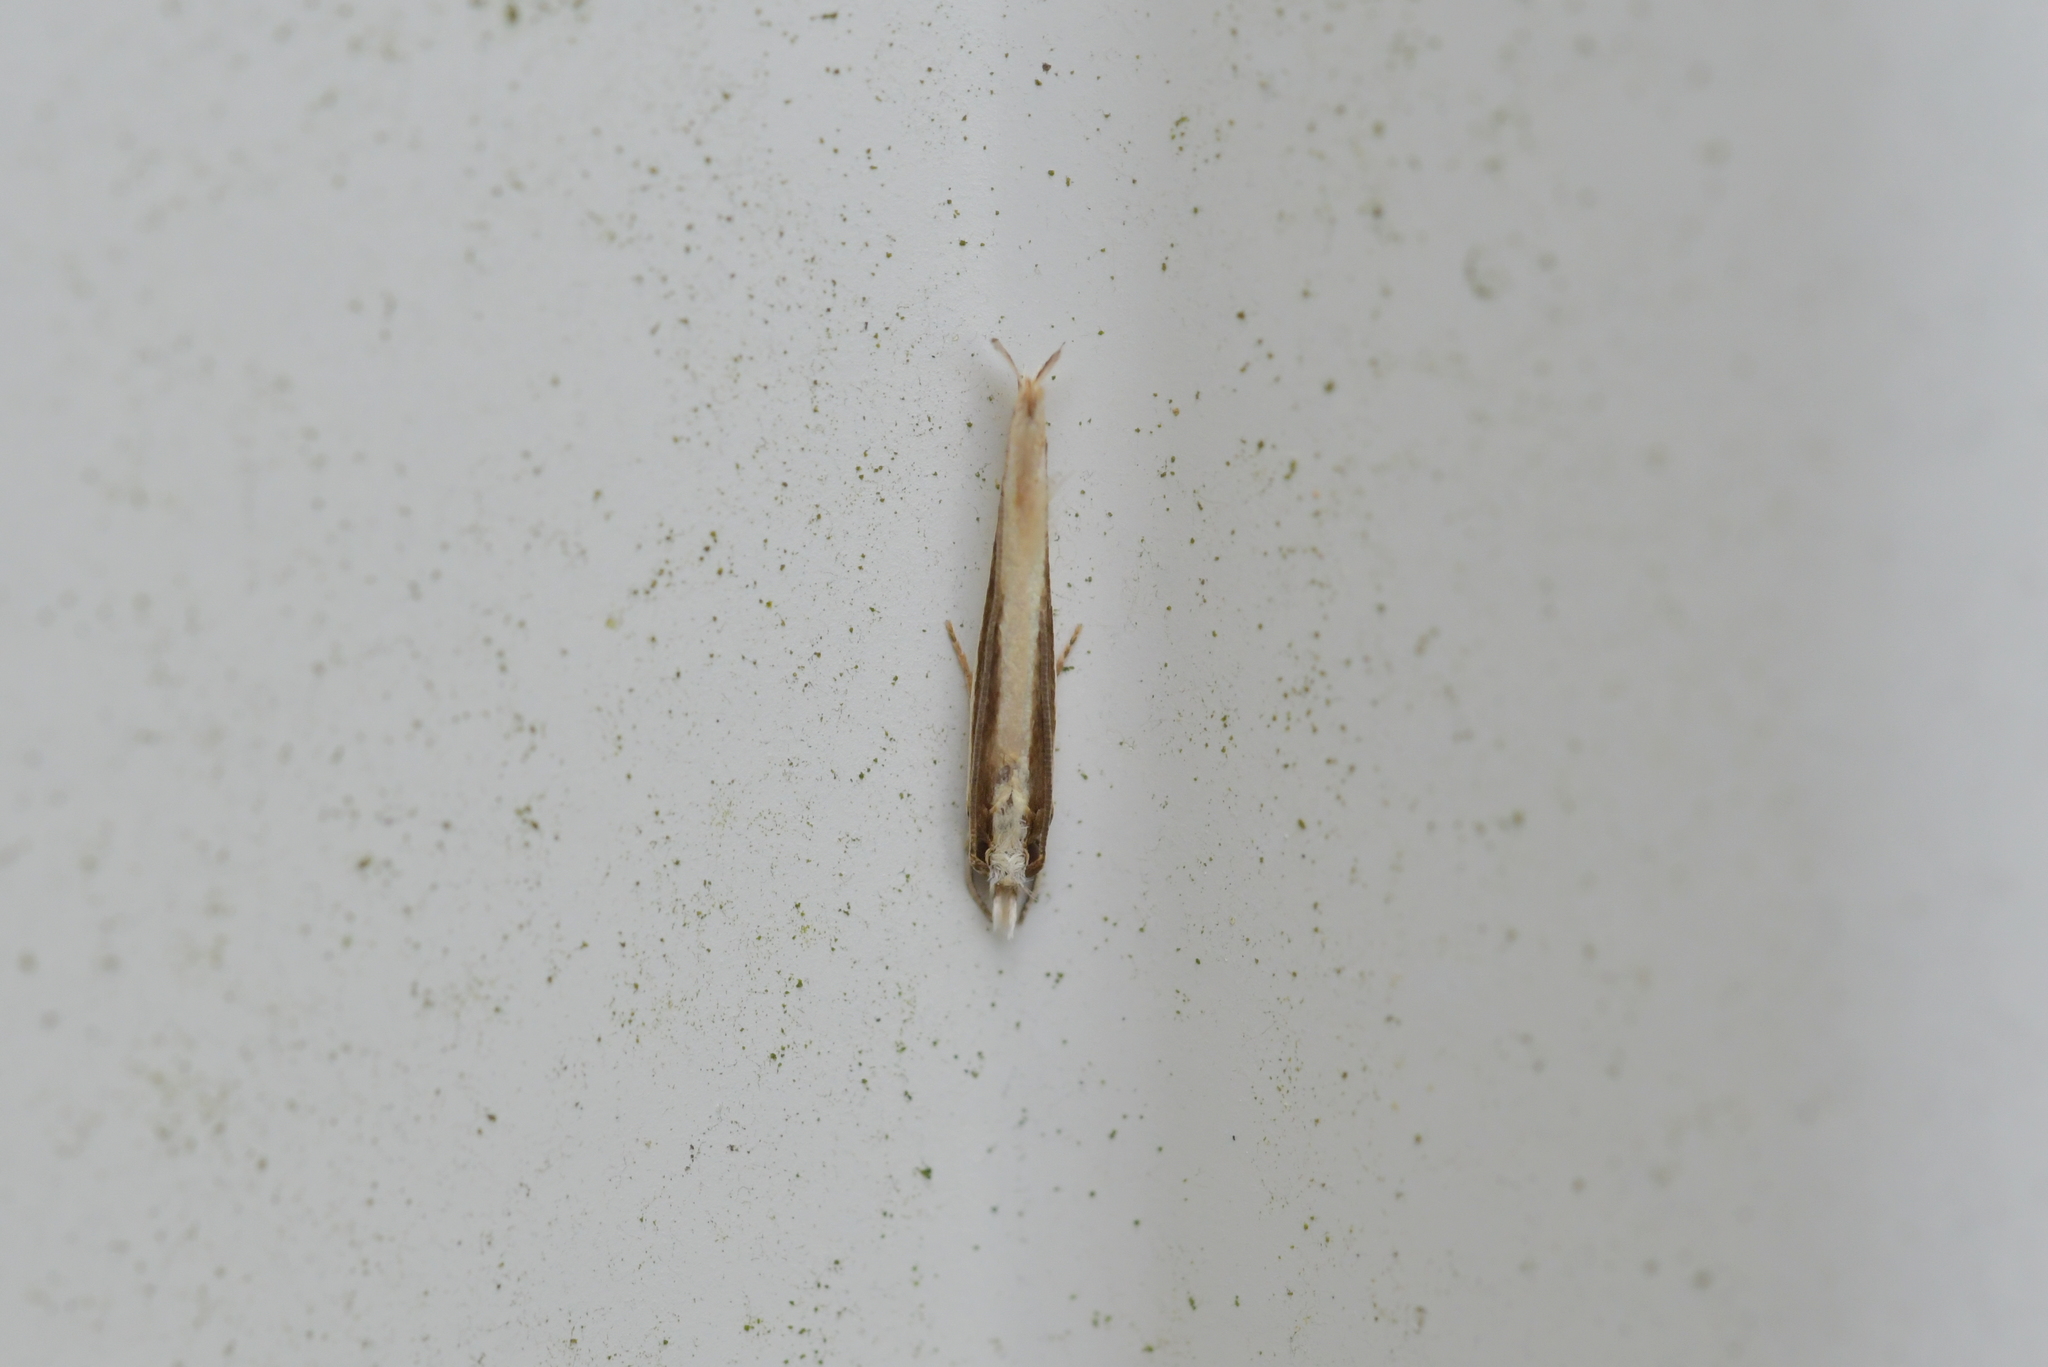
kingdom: Animalia
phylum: Arthropoda
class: Insecta
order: Lepidoptera
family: Tineidae
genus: Erechthias
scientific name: Erechthias stilbella
